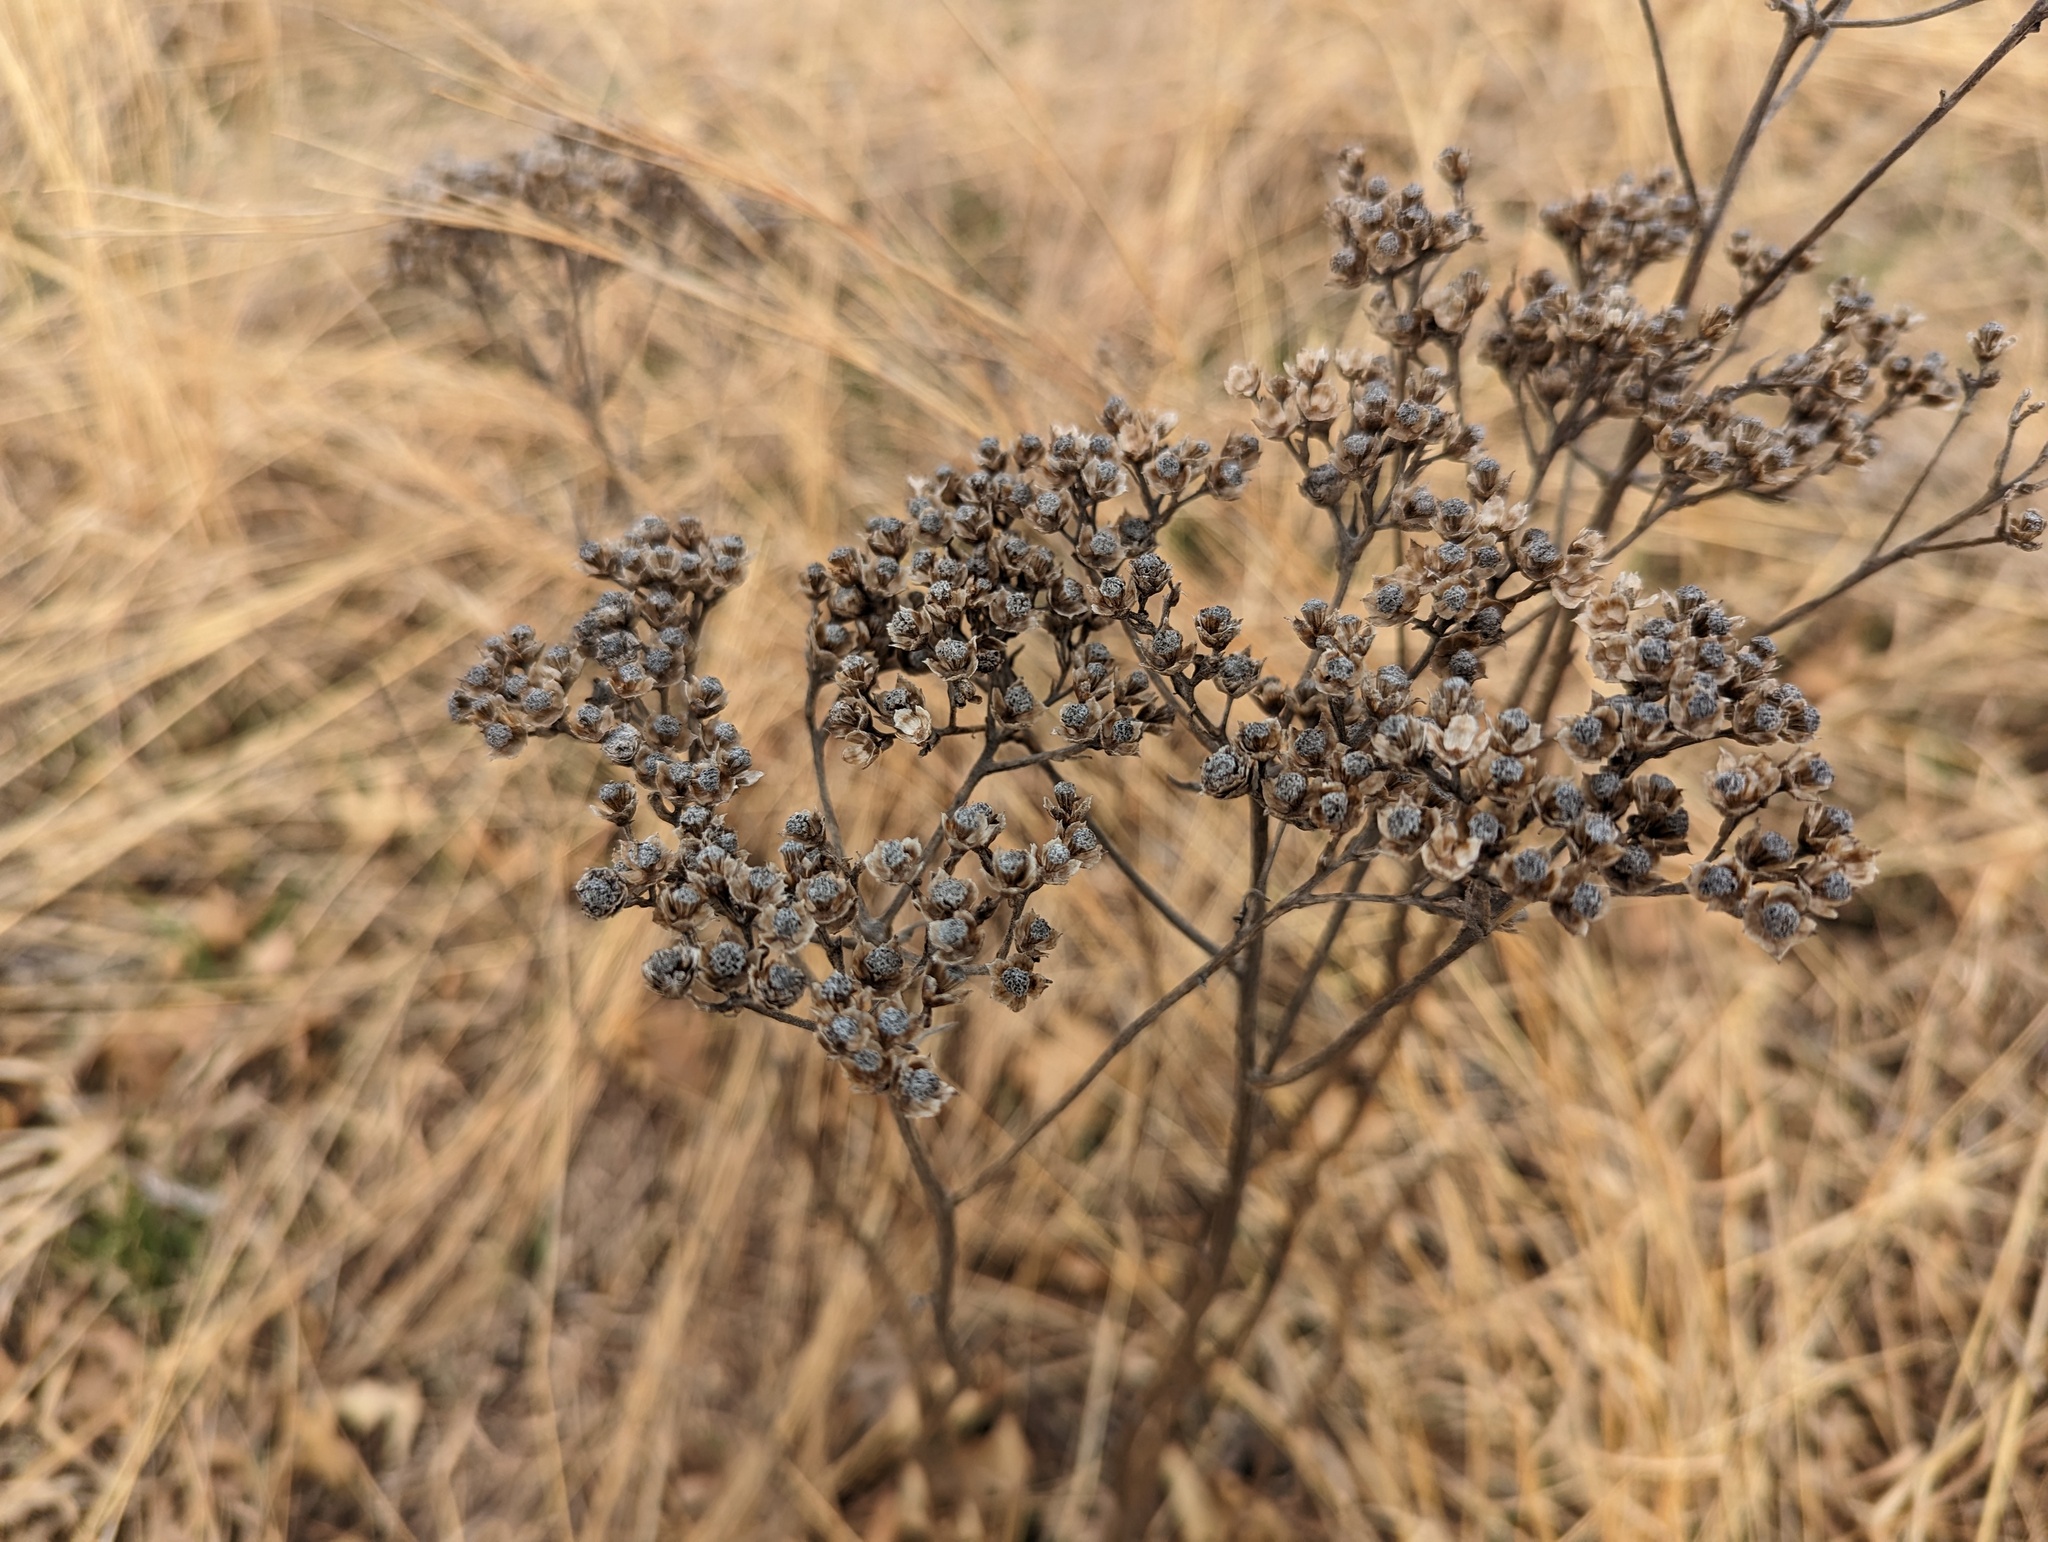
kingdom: Plantae
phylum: Tracheophyta
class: Magnoliopsida
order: Asterales
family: Asteraceae
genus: Parthenium
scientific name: Parthenium integrifolium
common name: American feverfew
